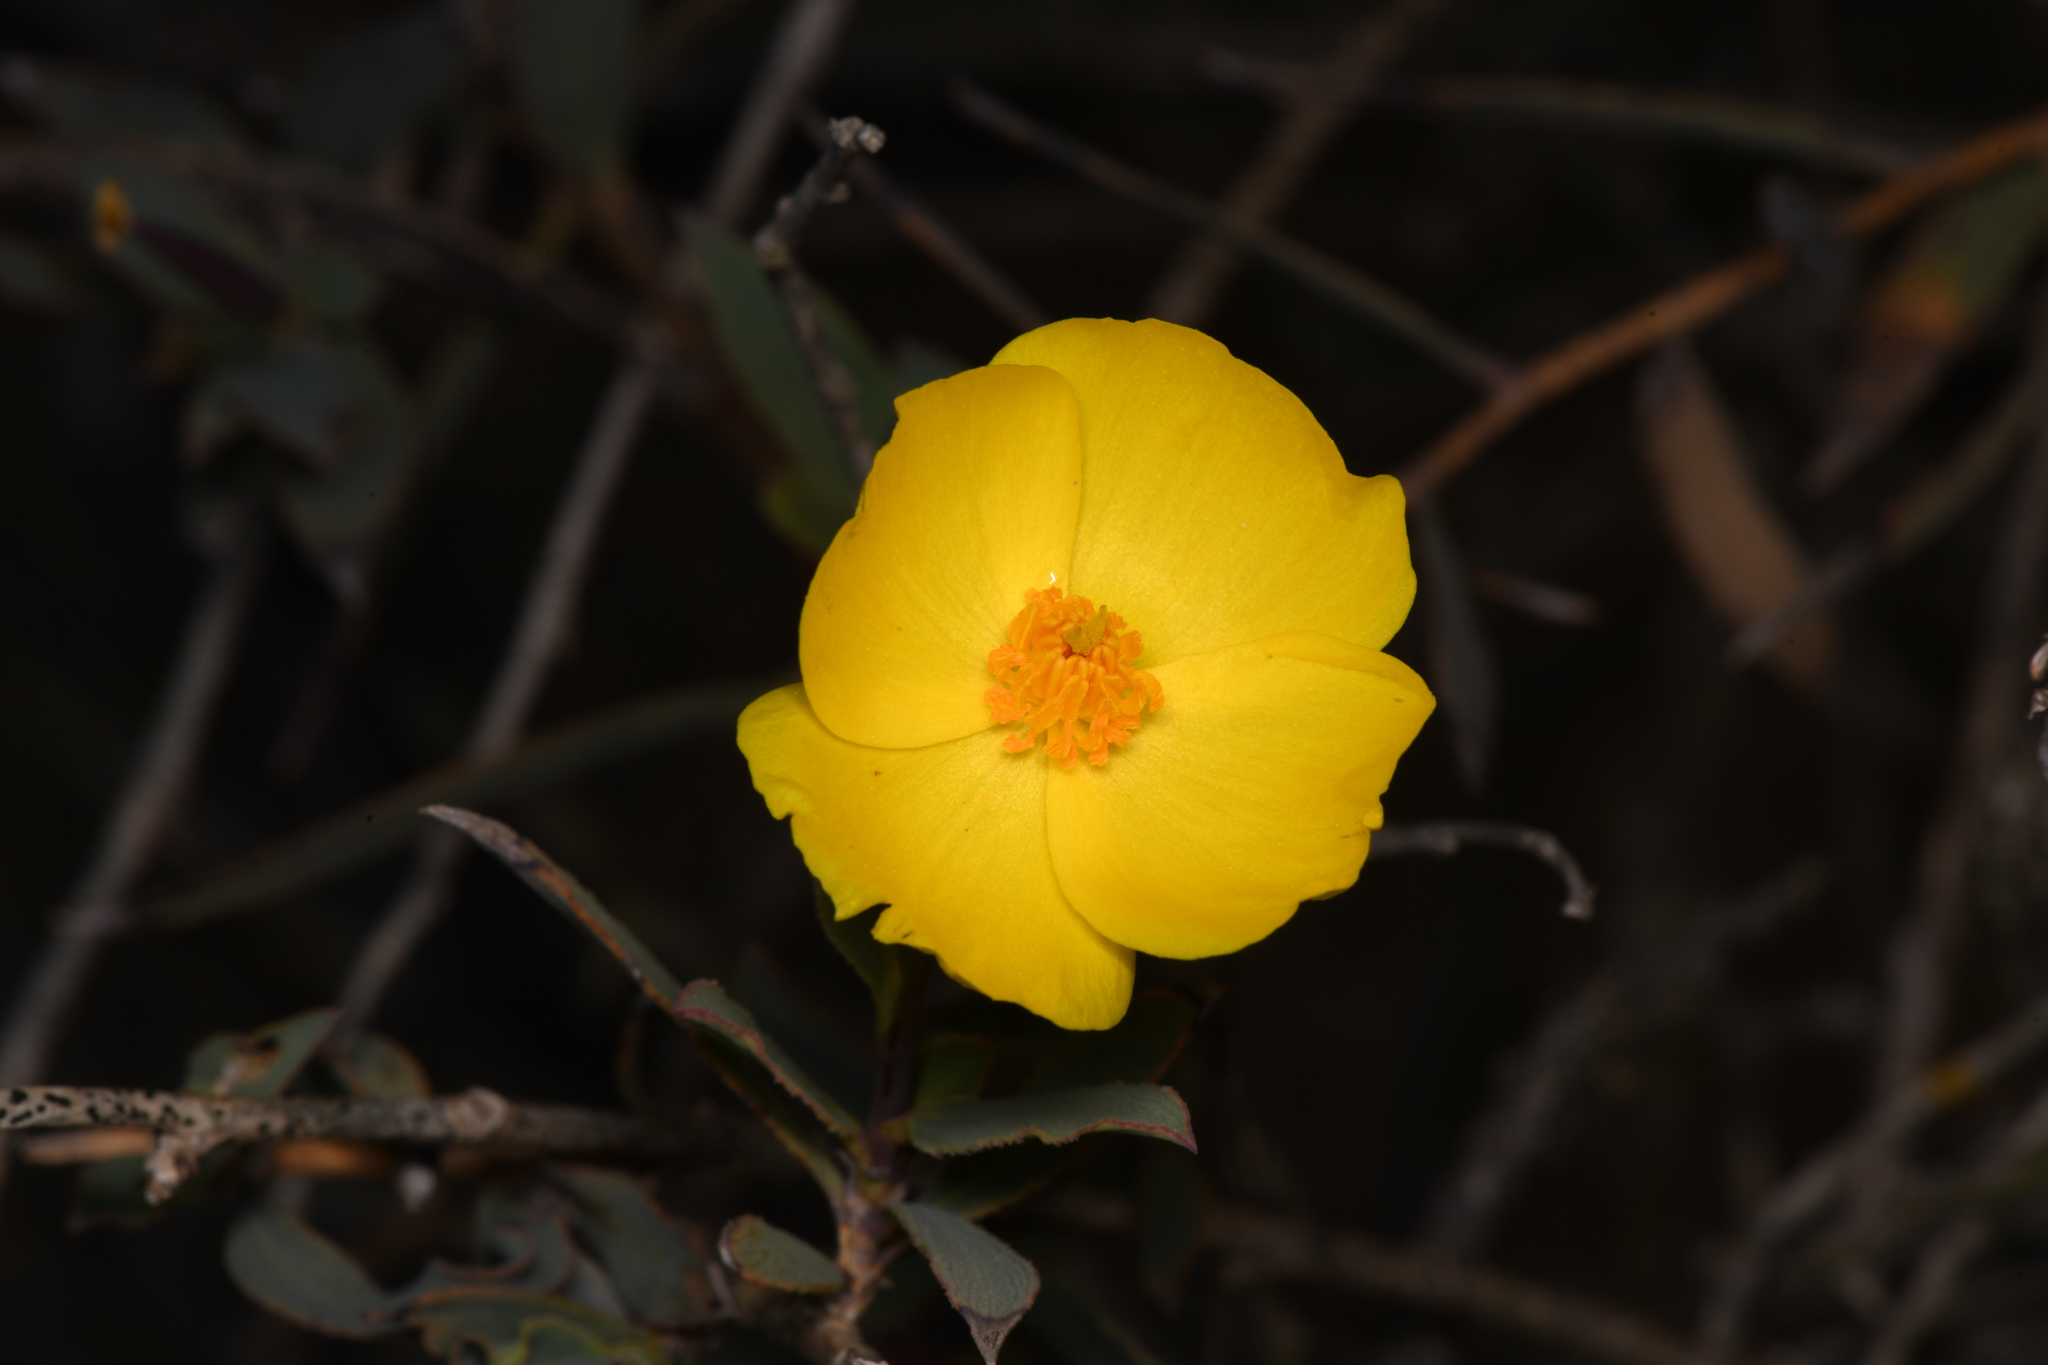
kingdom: Plantae
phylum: Tracheophyta
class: Magnoliopsida
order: Ranunculales
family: Papaveraceae
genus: Dendromecon
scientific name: Dendromecon rigida
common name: Tree poppy
